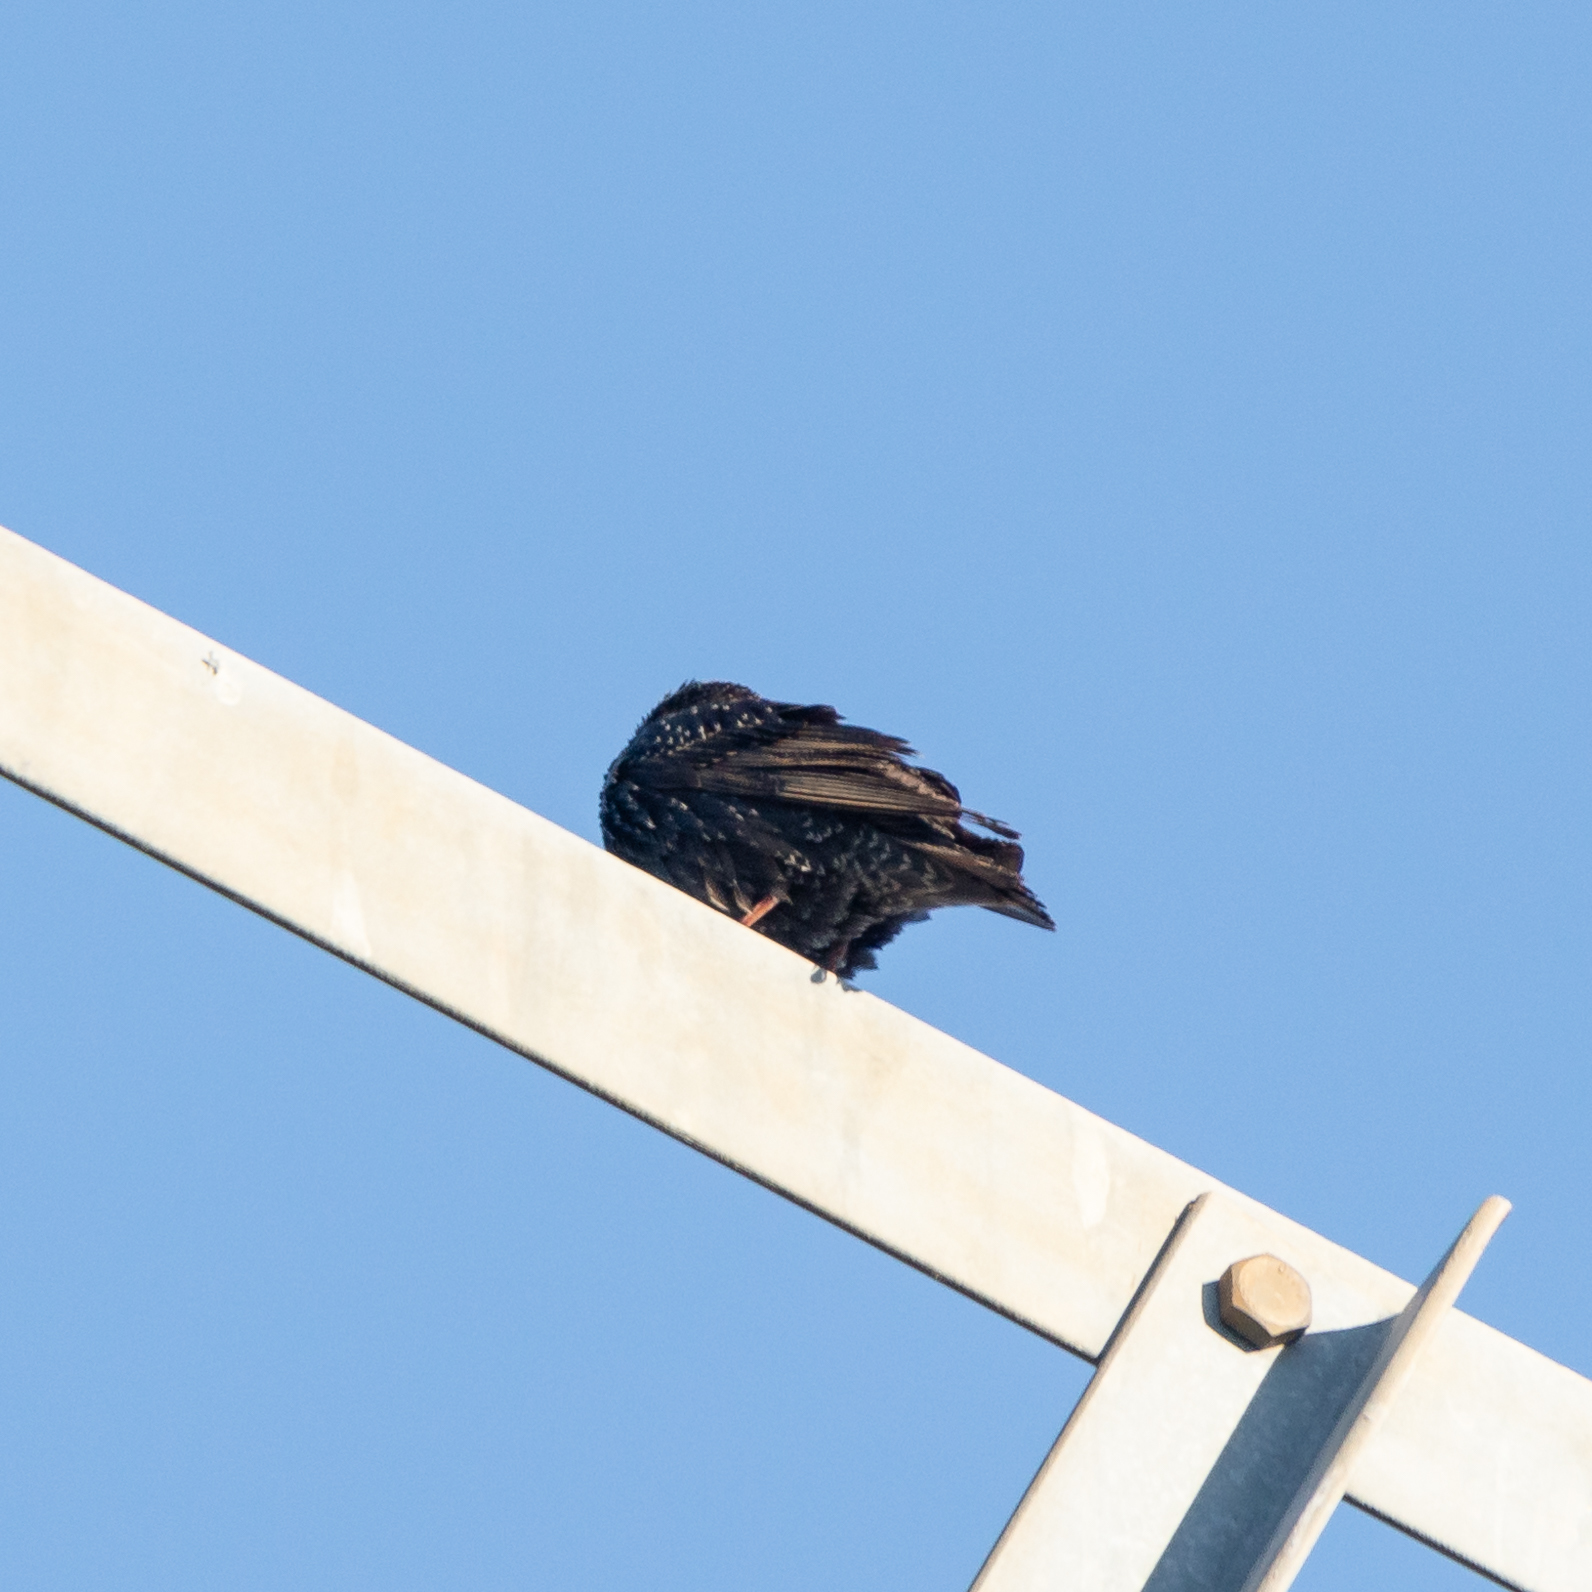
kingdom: Animalia
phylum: Chordata
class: Aves
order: Passeriformes
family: Sturnidae
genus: Sturnus
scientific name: Sturnus unicolor
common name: Spotless starling
